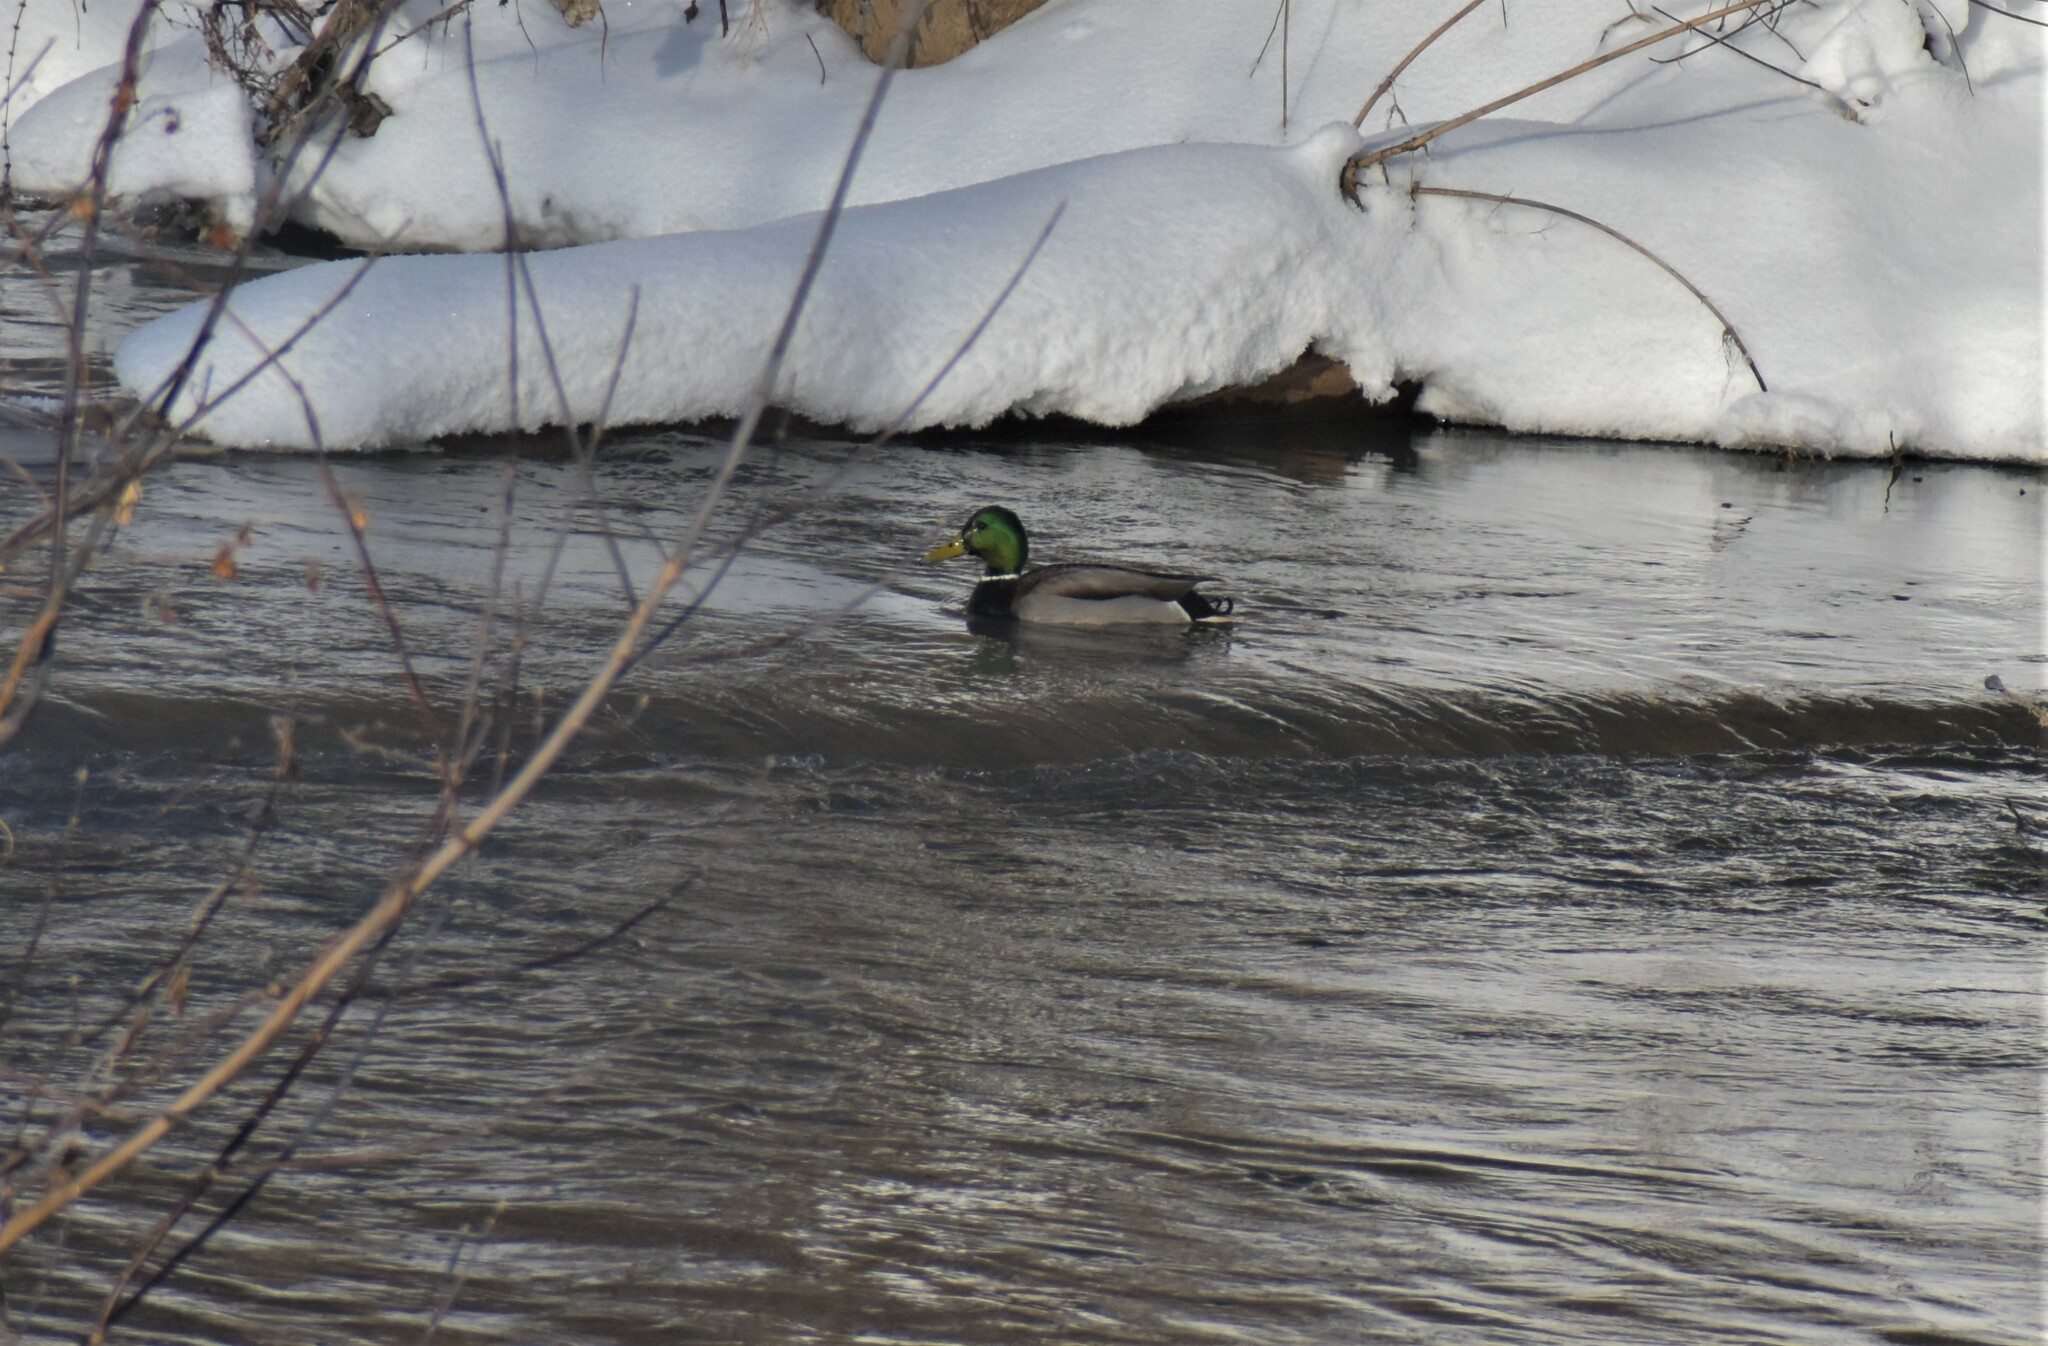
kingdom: Animalia
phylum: Chordata
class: Aves
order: Anseriformes
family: Anatidae
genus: Anas
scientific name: Anas platyrhynchos
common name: Mallard
